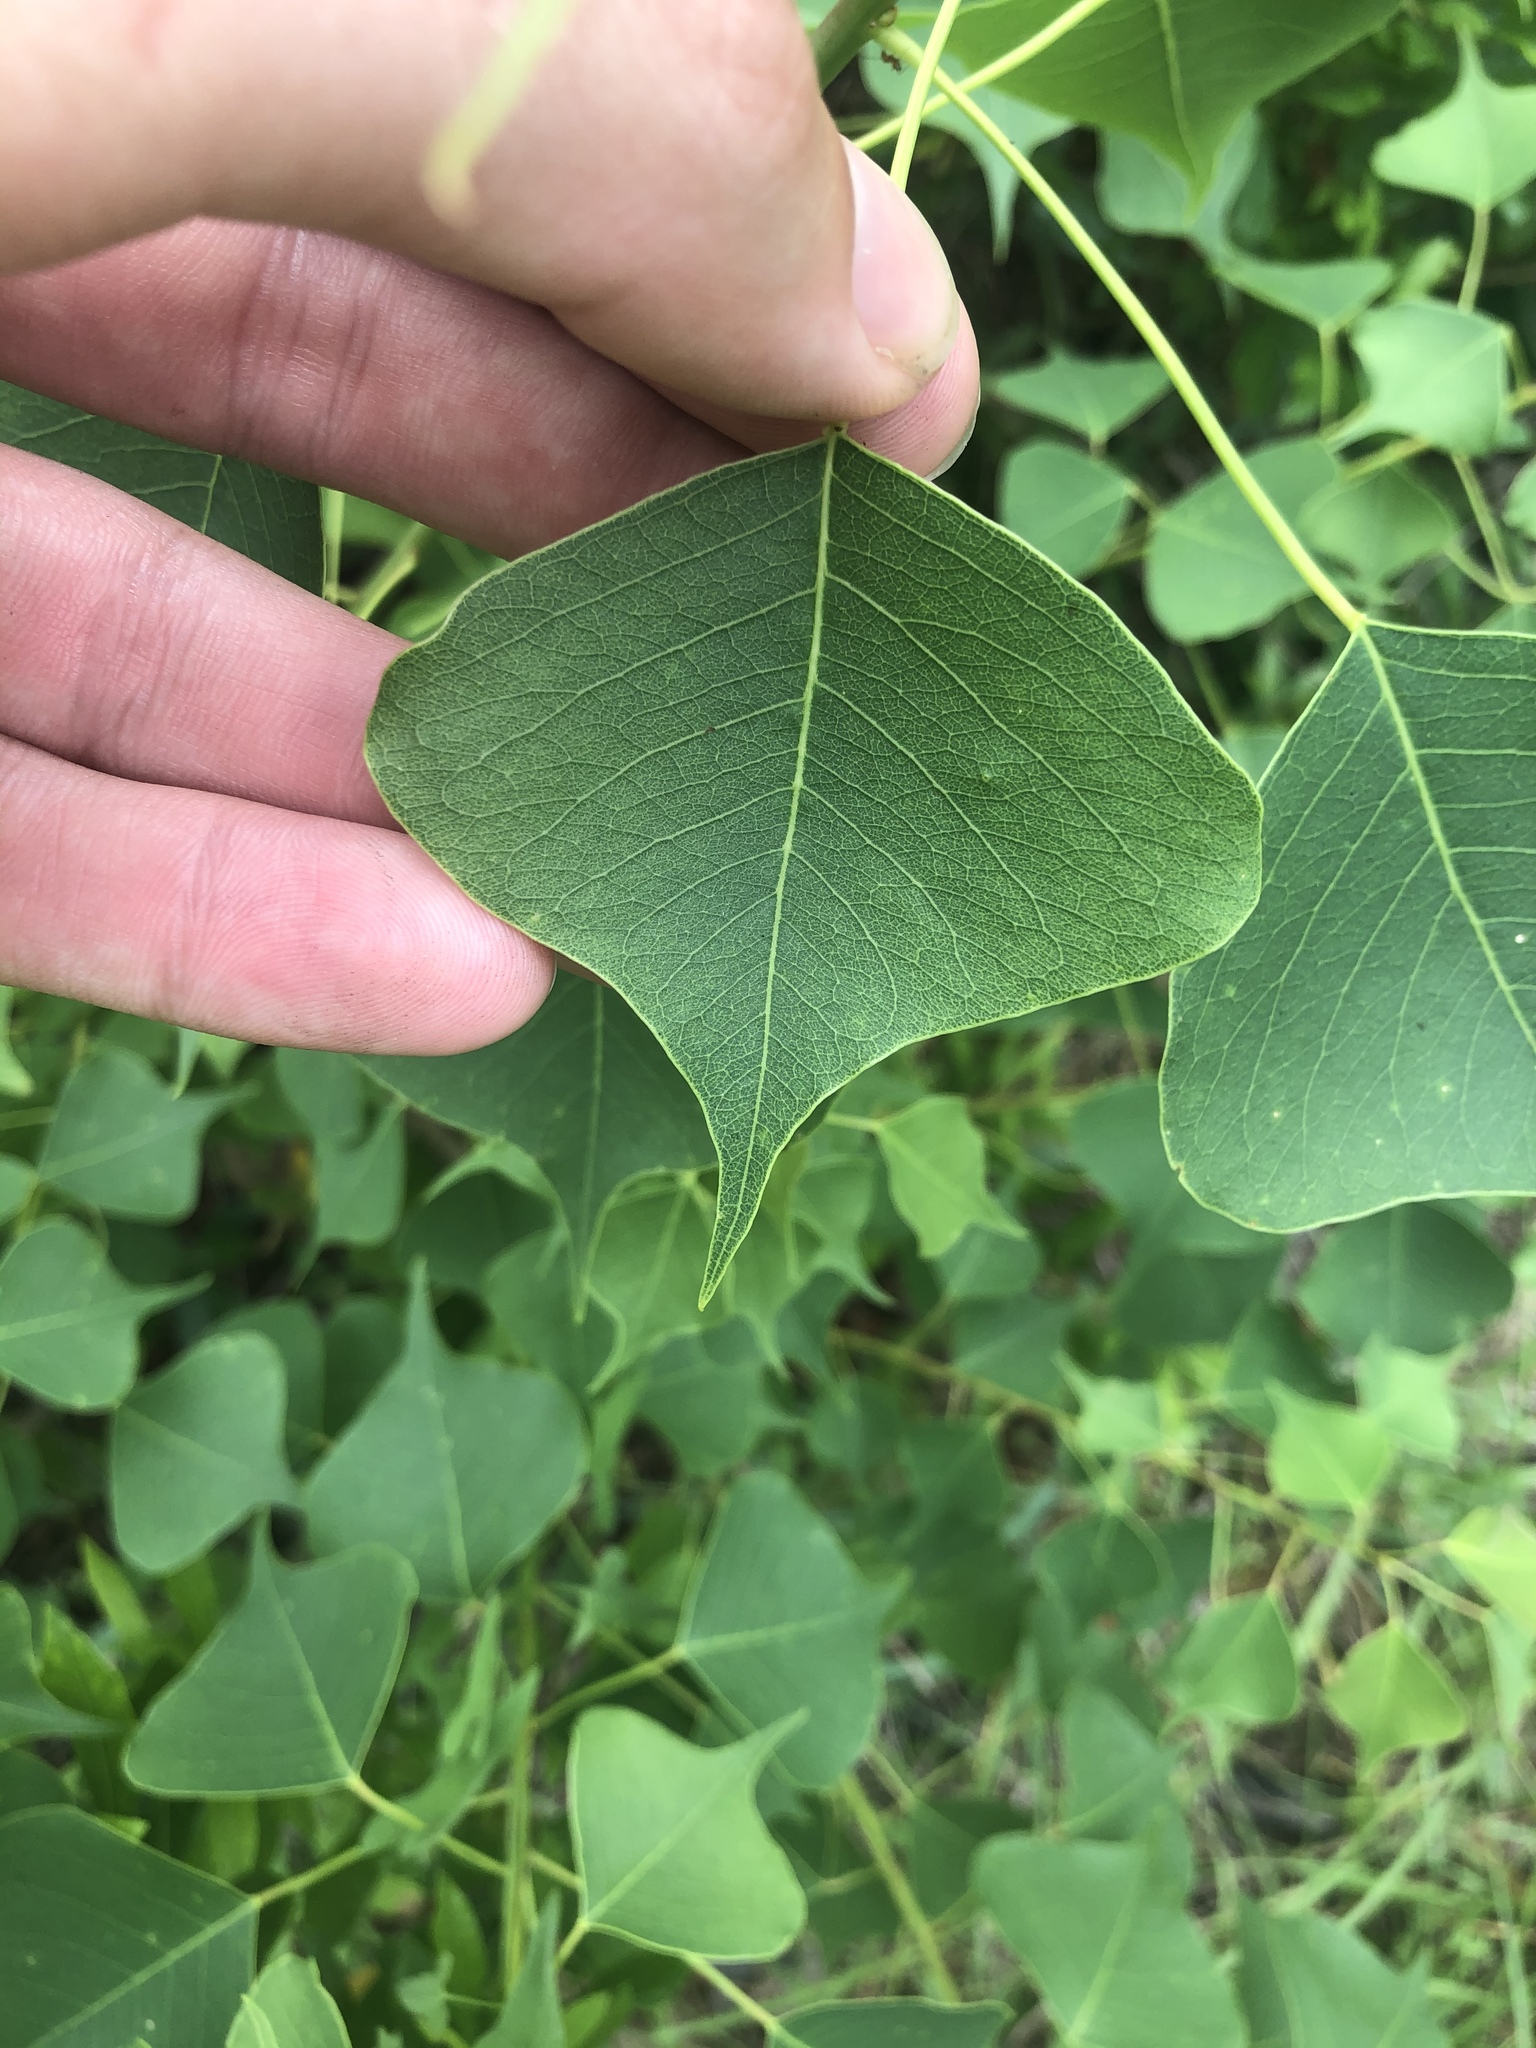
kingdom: Plantae
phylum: Tracheophyta
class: Magnoliopsida
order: Malpighiales
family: Euphorbiaceae
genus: Triadica
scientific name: Triadica sebifera
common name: Chinese tallow
